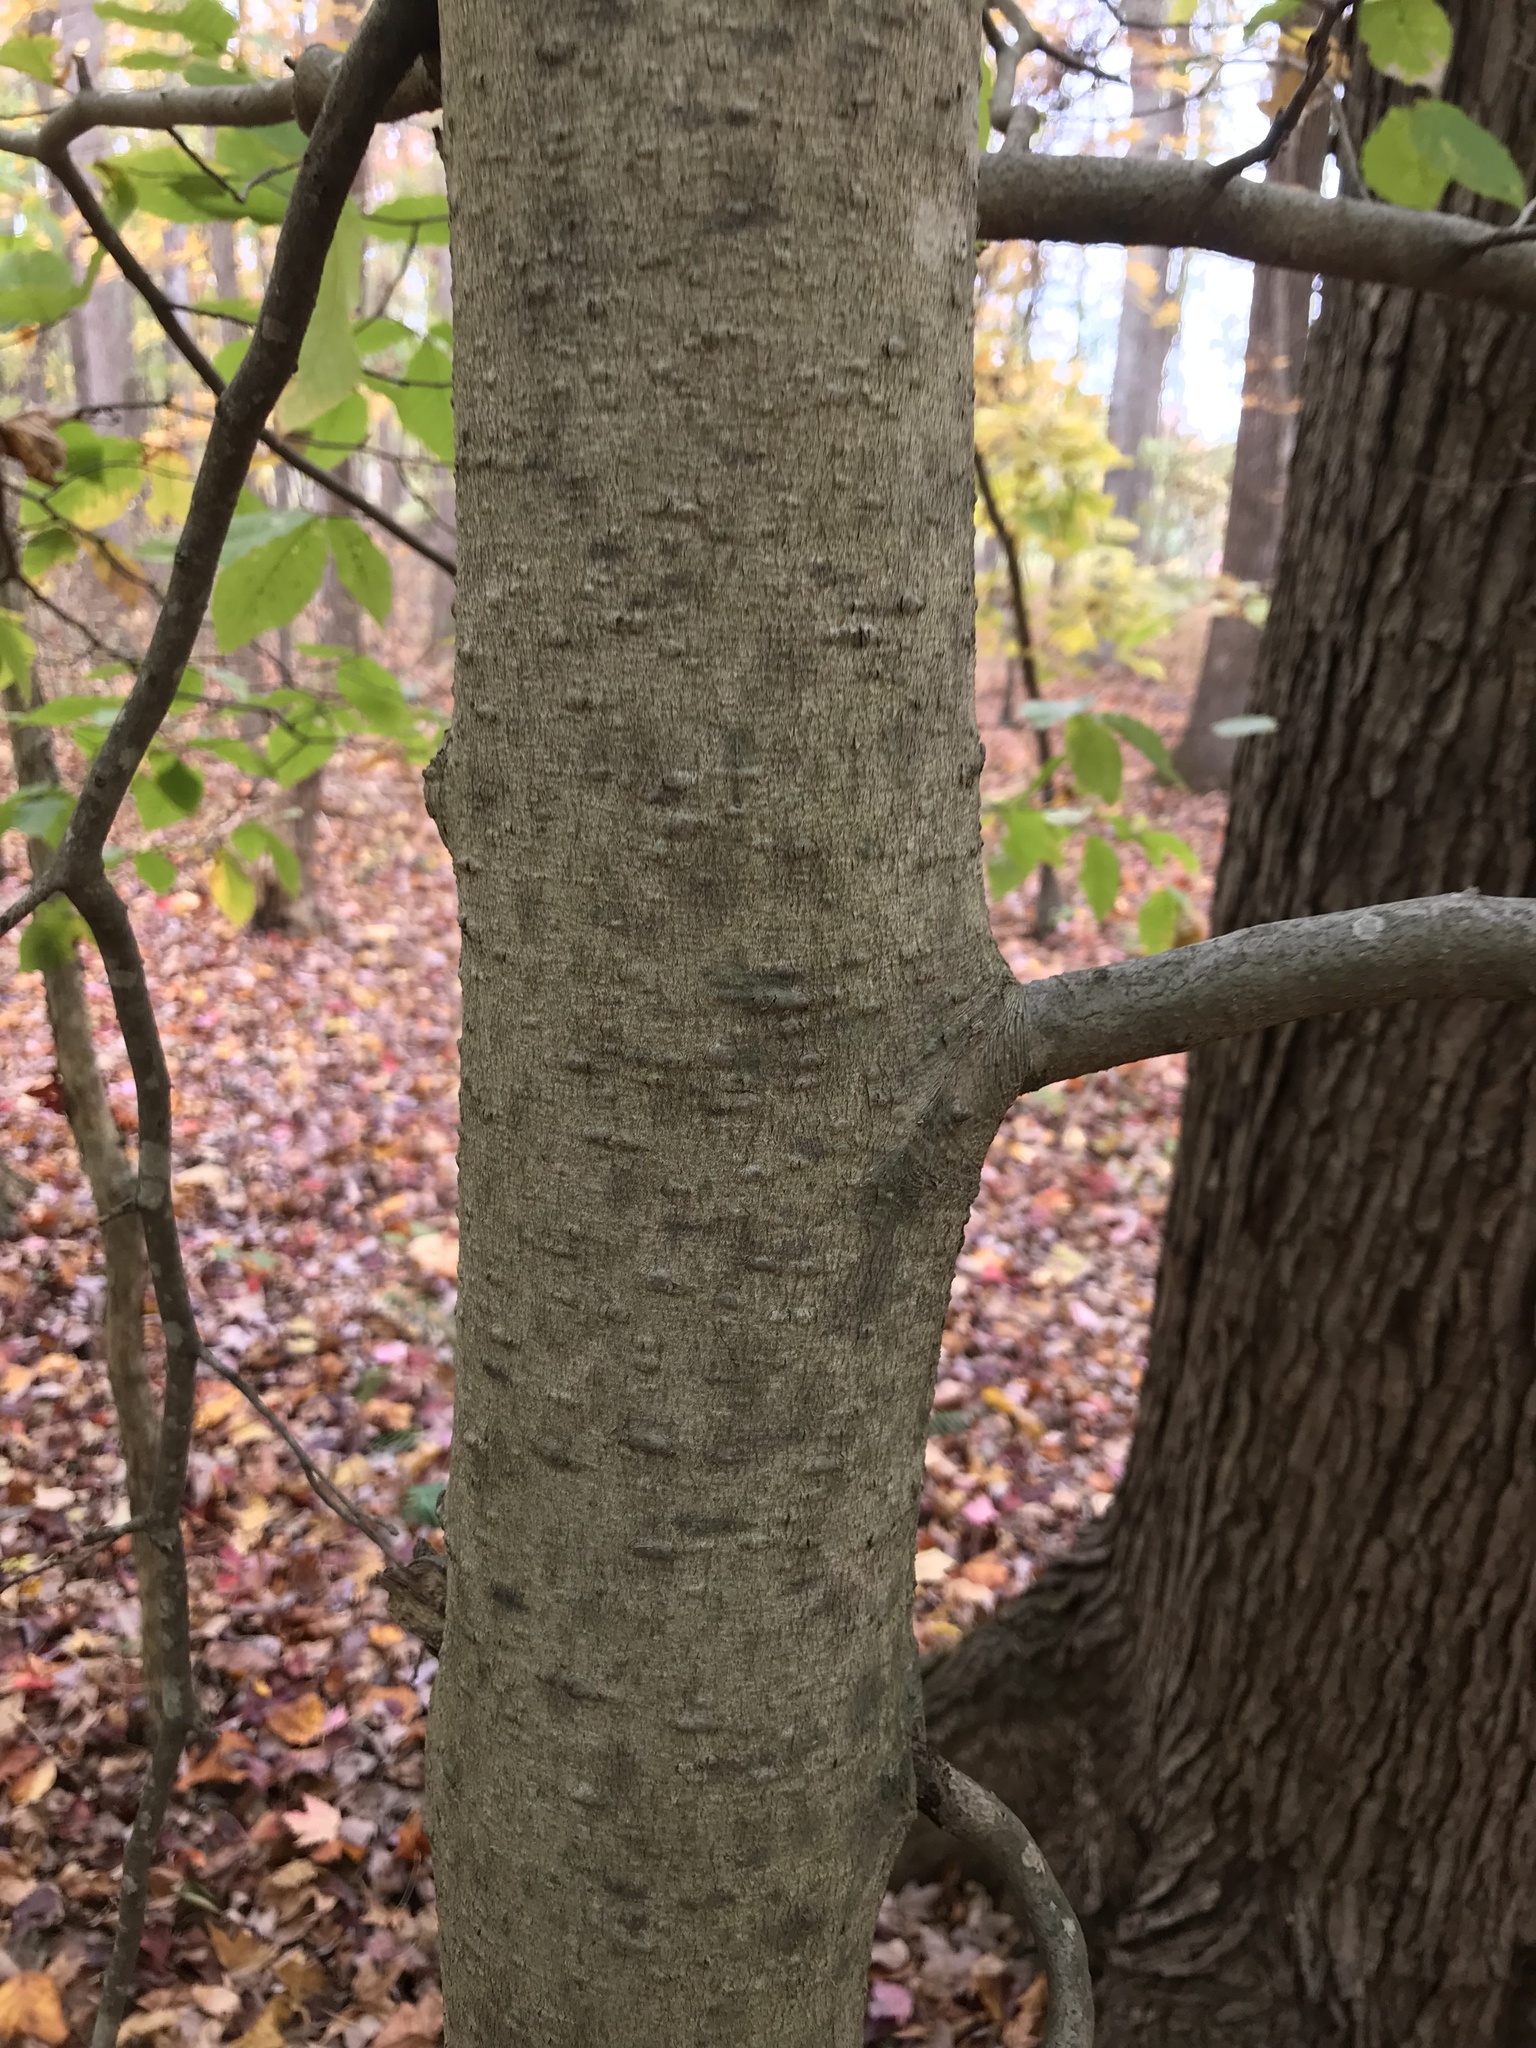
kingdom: Plantae
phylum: Tracheophyta
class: Magnoliopsida
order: Fagales
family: Fagaceae
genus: Fagus
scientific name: Fagus grandifolia
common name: American beech
